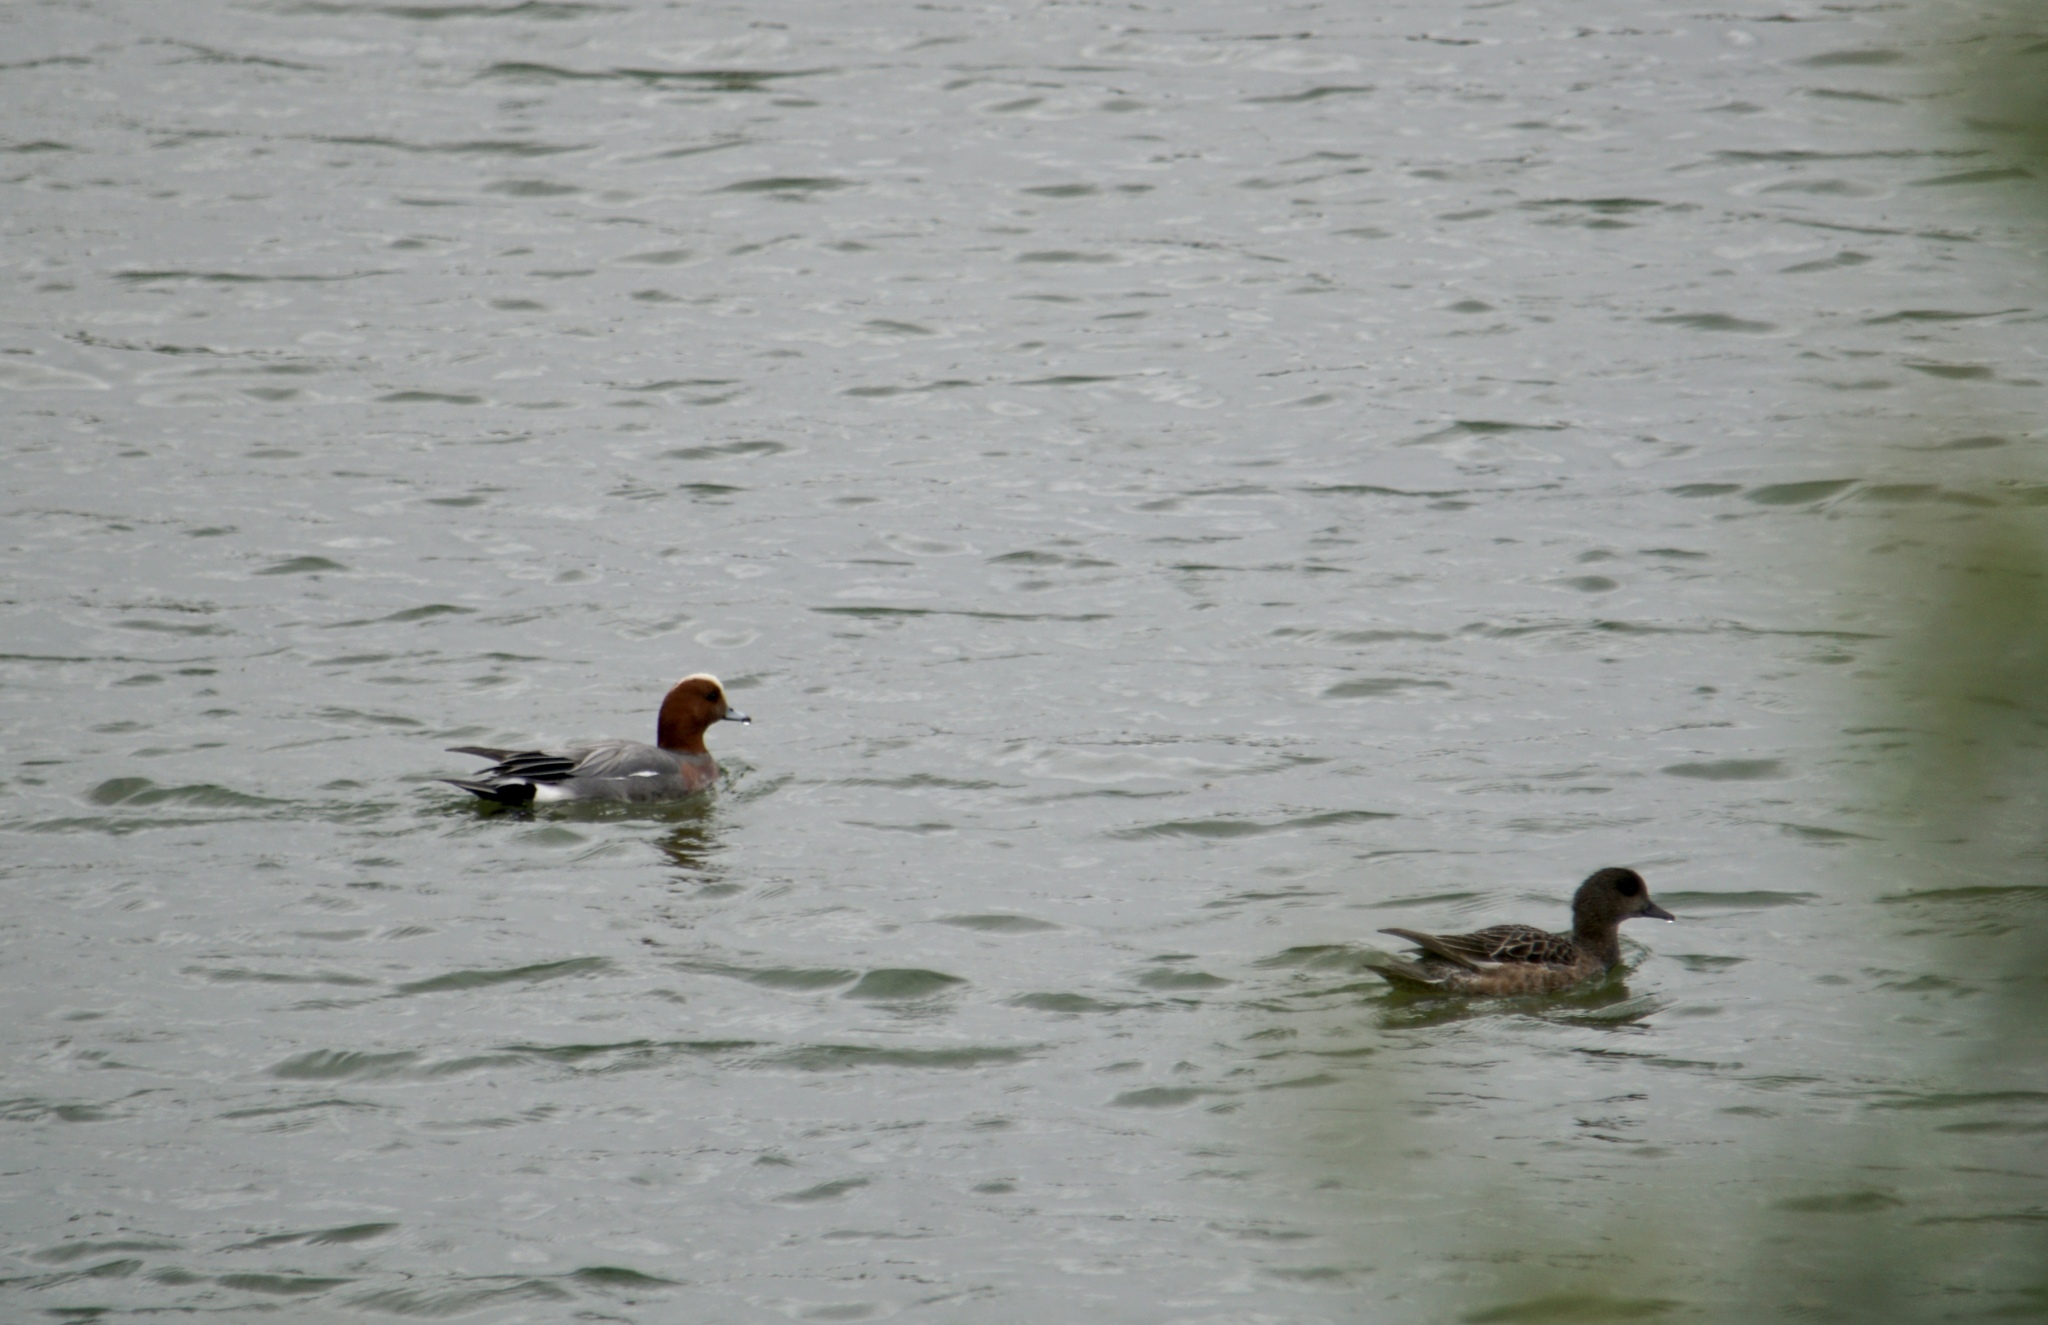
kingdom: Animalia
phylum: Chordata
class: Aves
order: Anseriformes
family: Anatidae
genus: Mareca
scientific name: Mareca penelope
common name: Eurasian wigeon
